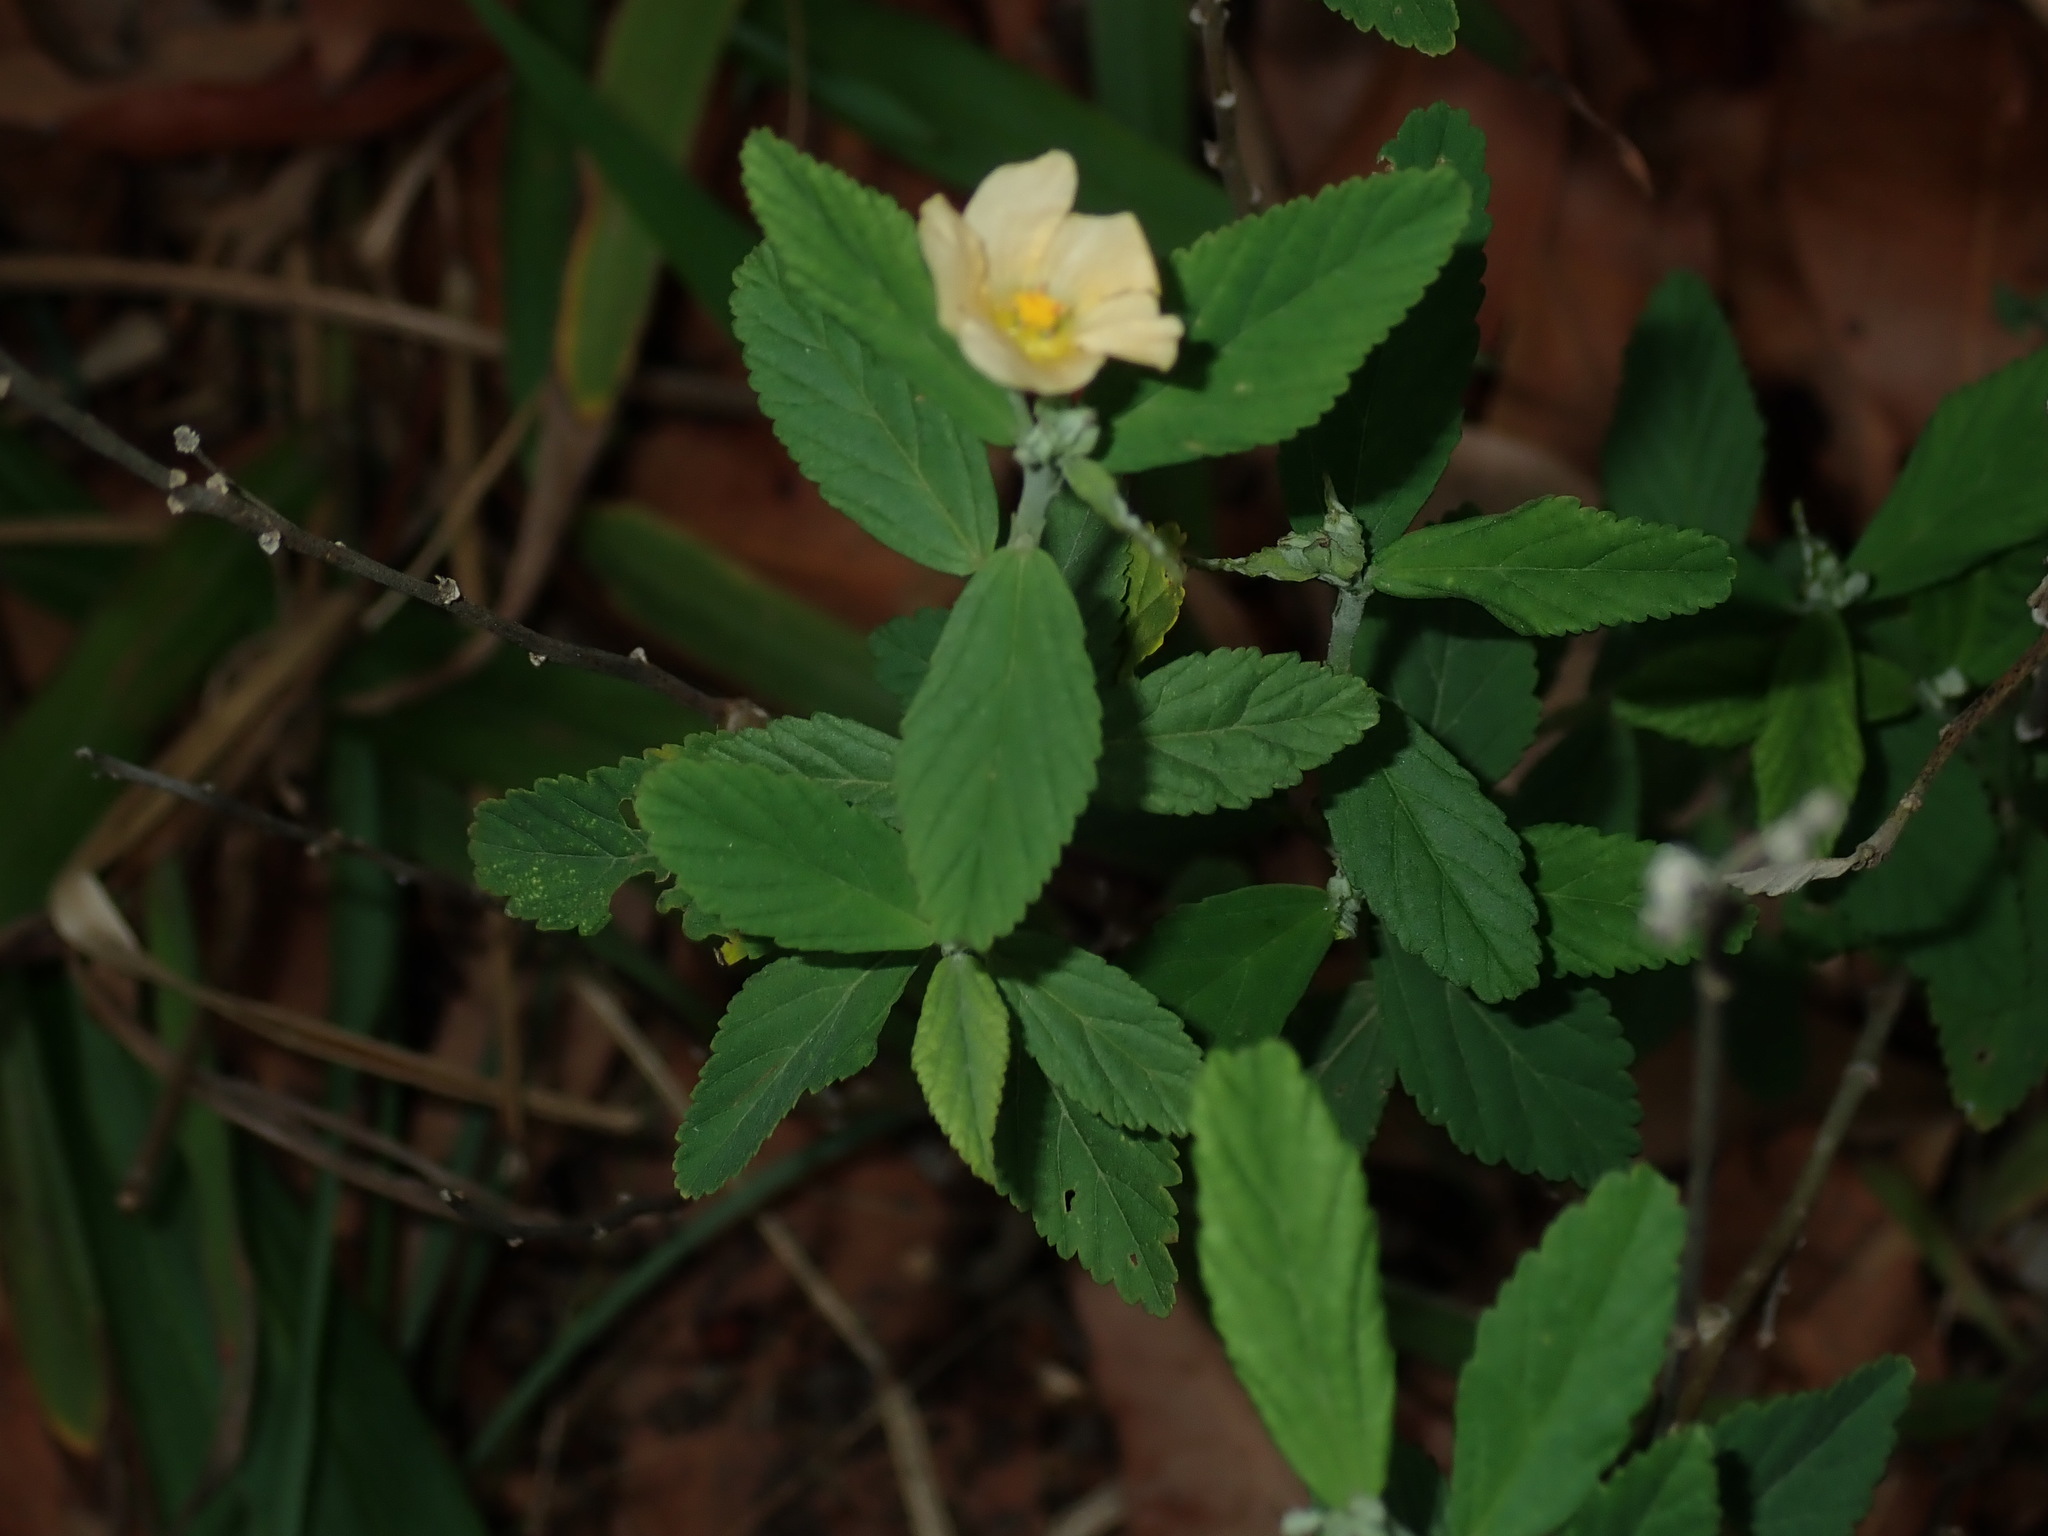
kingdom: Plantae
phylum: Tracheophyta
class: Magnoliopsida
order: Malvales
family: Malvaceae
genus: Sida
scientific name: Sida rhombifolia
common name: Queensland-hemp
